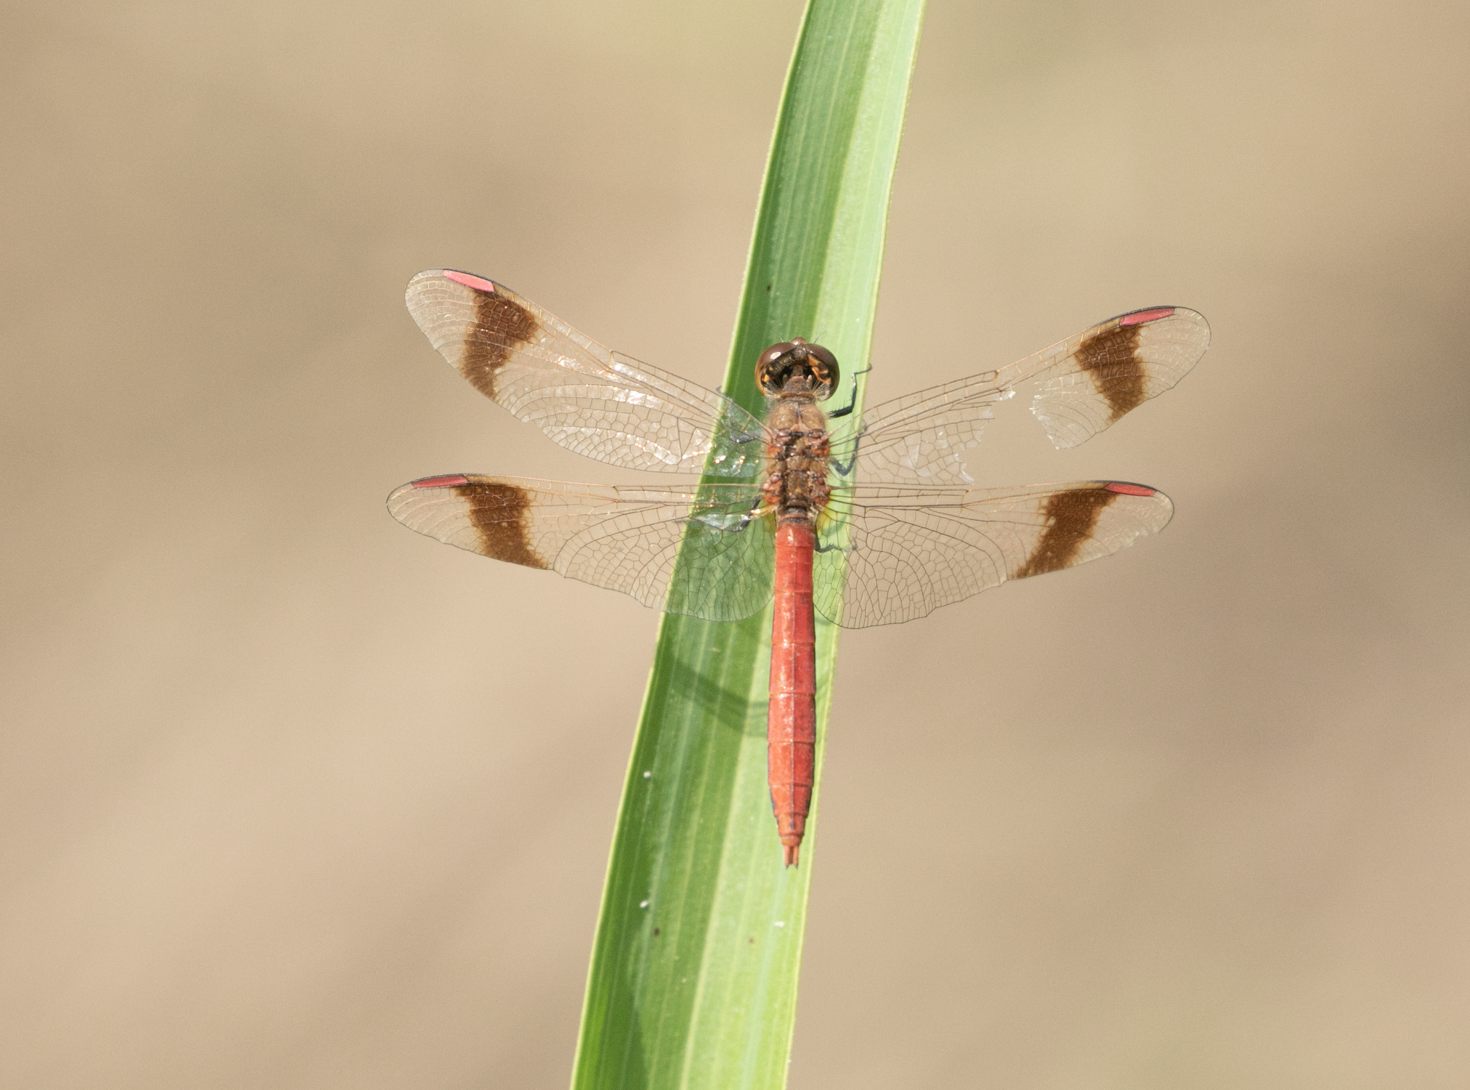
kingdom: Animalia
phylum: Arthropoda
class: Insecta
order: Odonata
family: Libellulidae
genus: Sympetrum
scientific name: Sympetrum pedemontanum
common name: Banded darter
